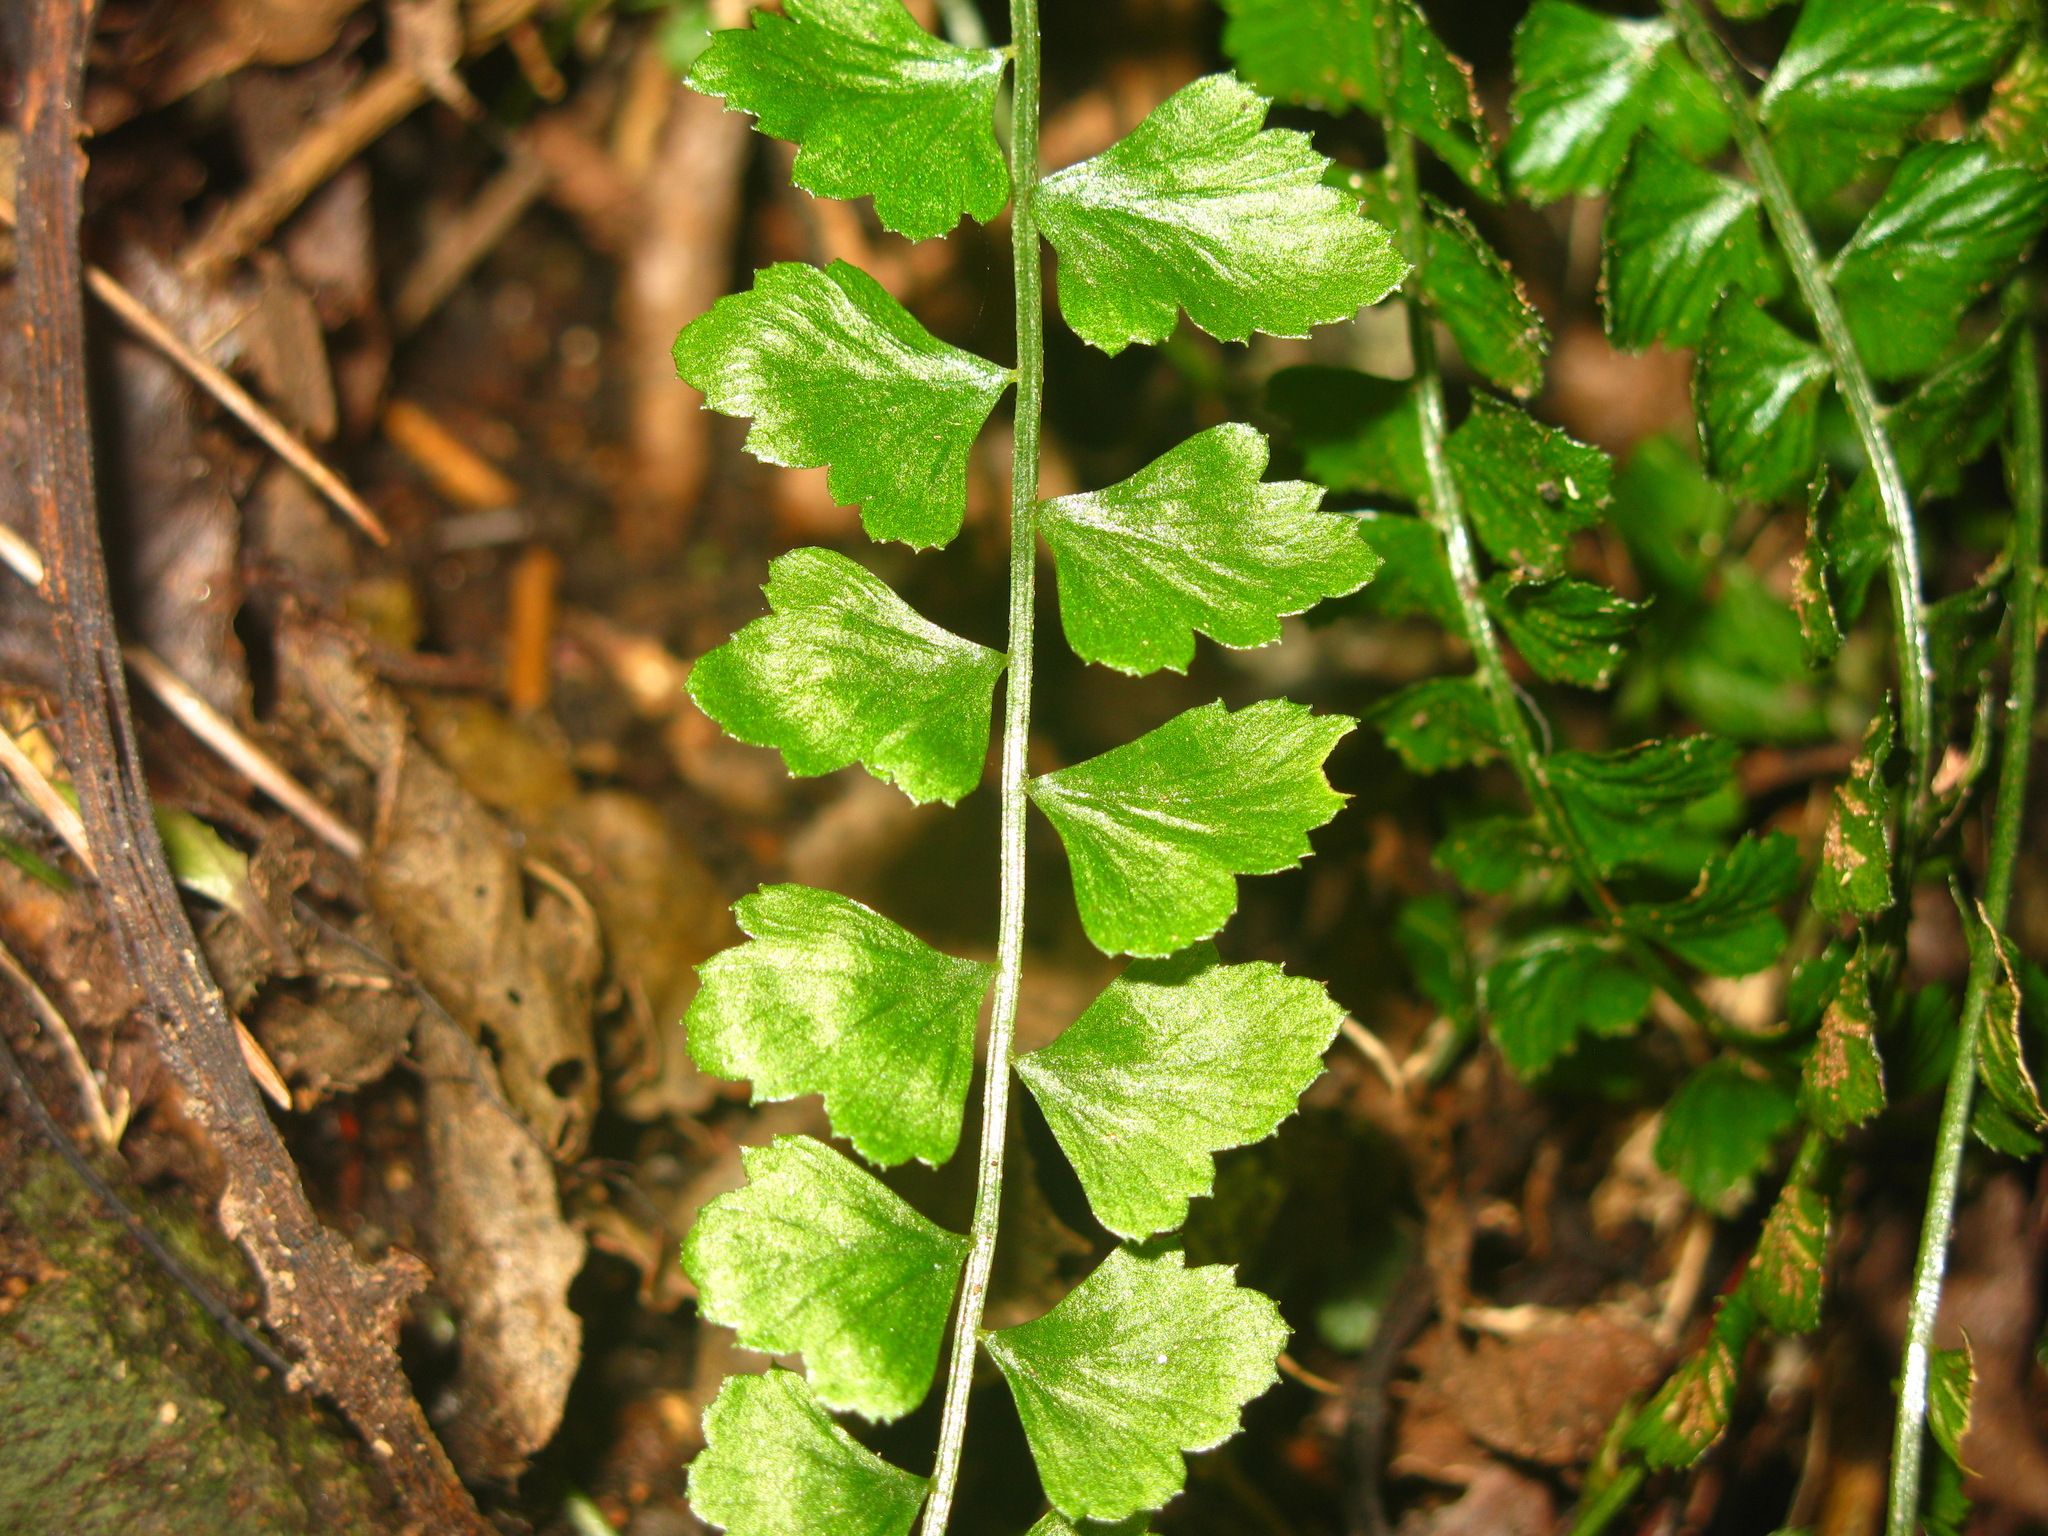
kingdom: Plantae
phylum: Tracheophyta
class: Polypodiopsida
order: Polypodiales
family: Aspleniaceae
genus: Asplenium
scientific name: Asplenium flabellifolium
